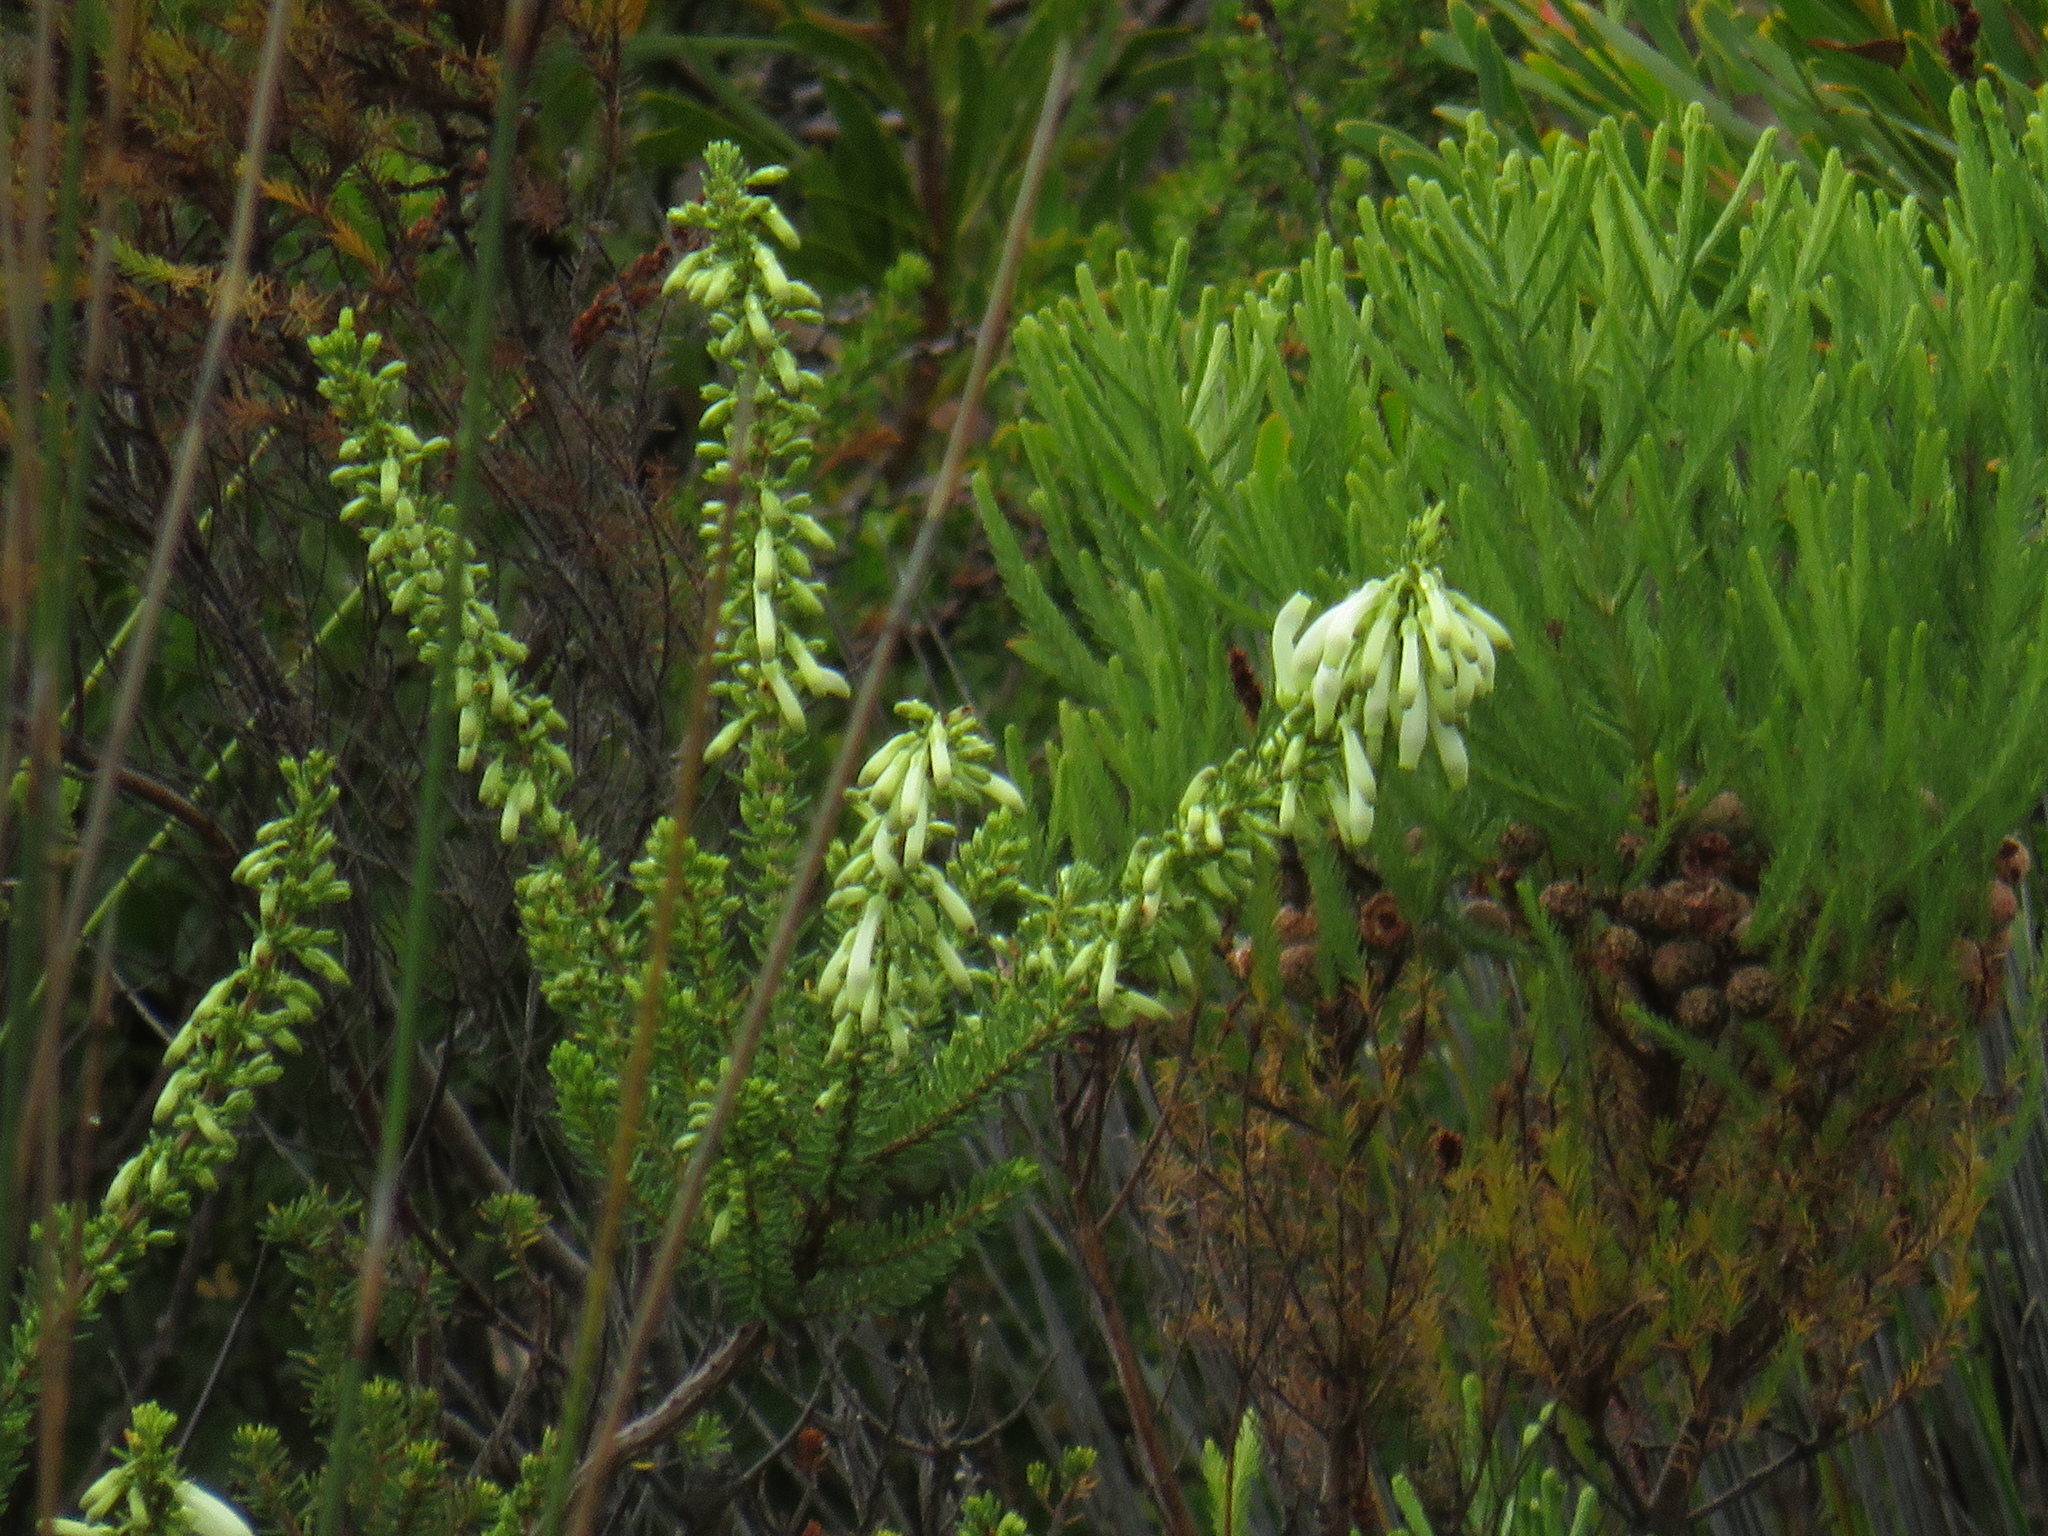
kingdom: Plantae
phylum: Tracheophyta
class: Magnoliopsida
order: Ericales
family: Ericaceae
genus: Erica
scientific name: Erica mammosa
